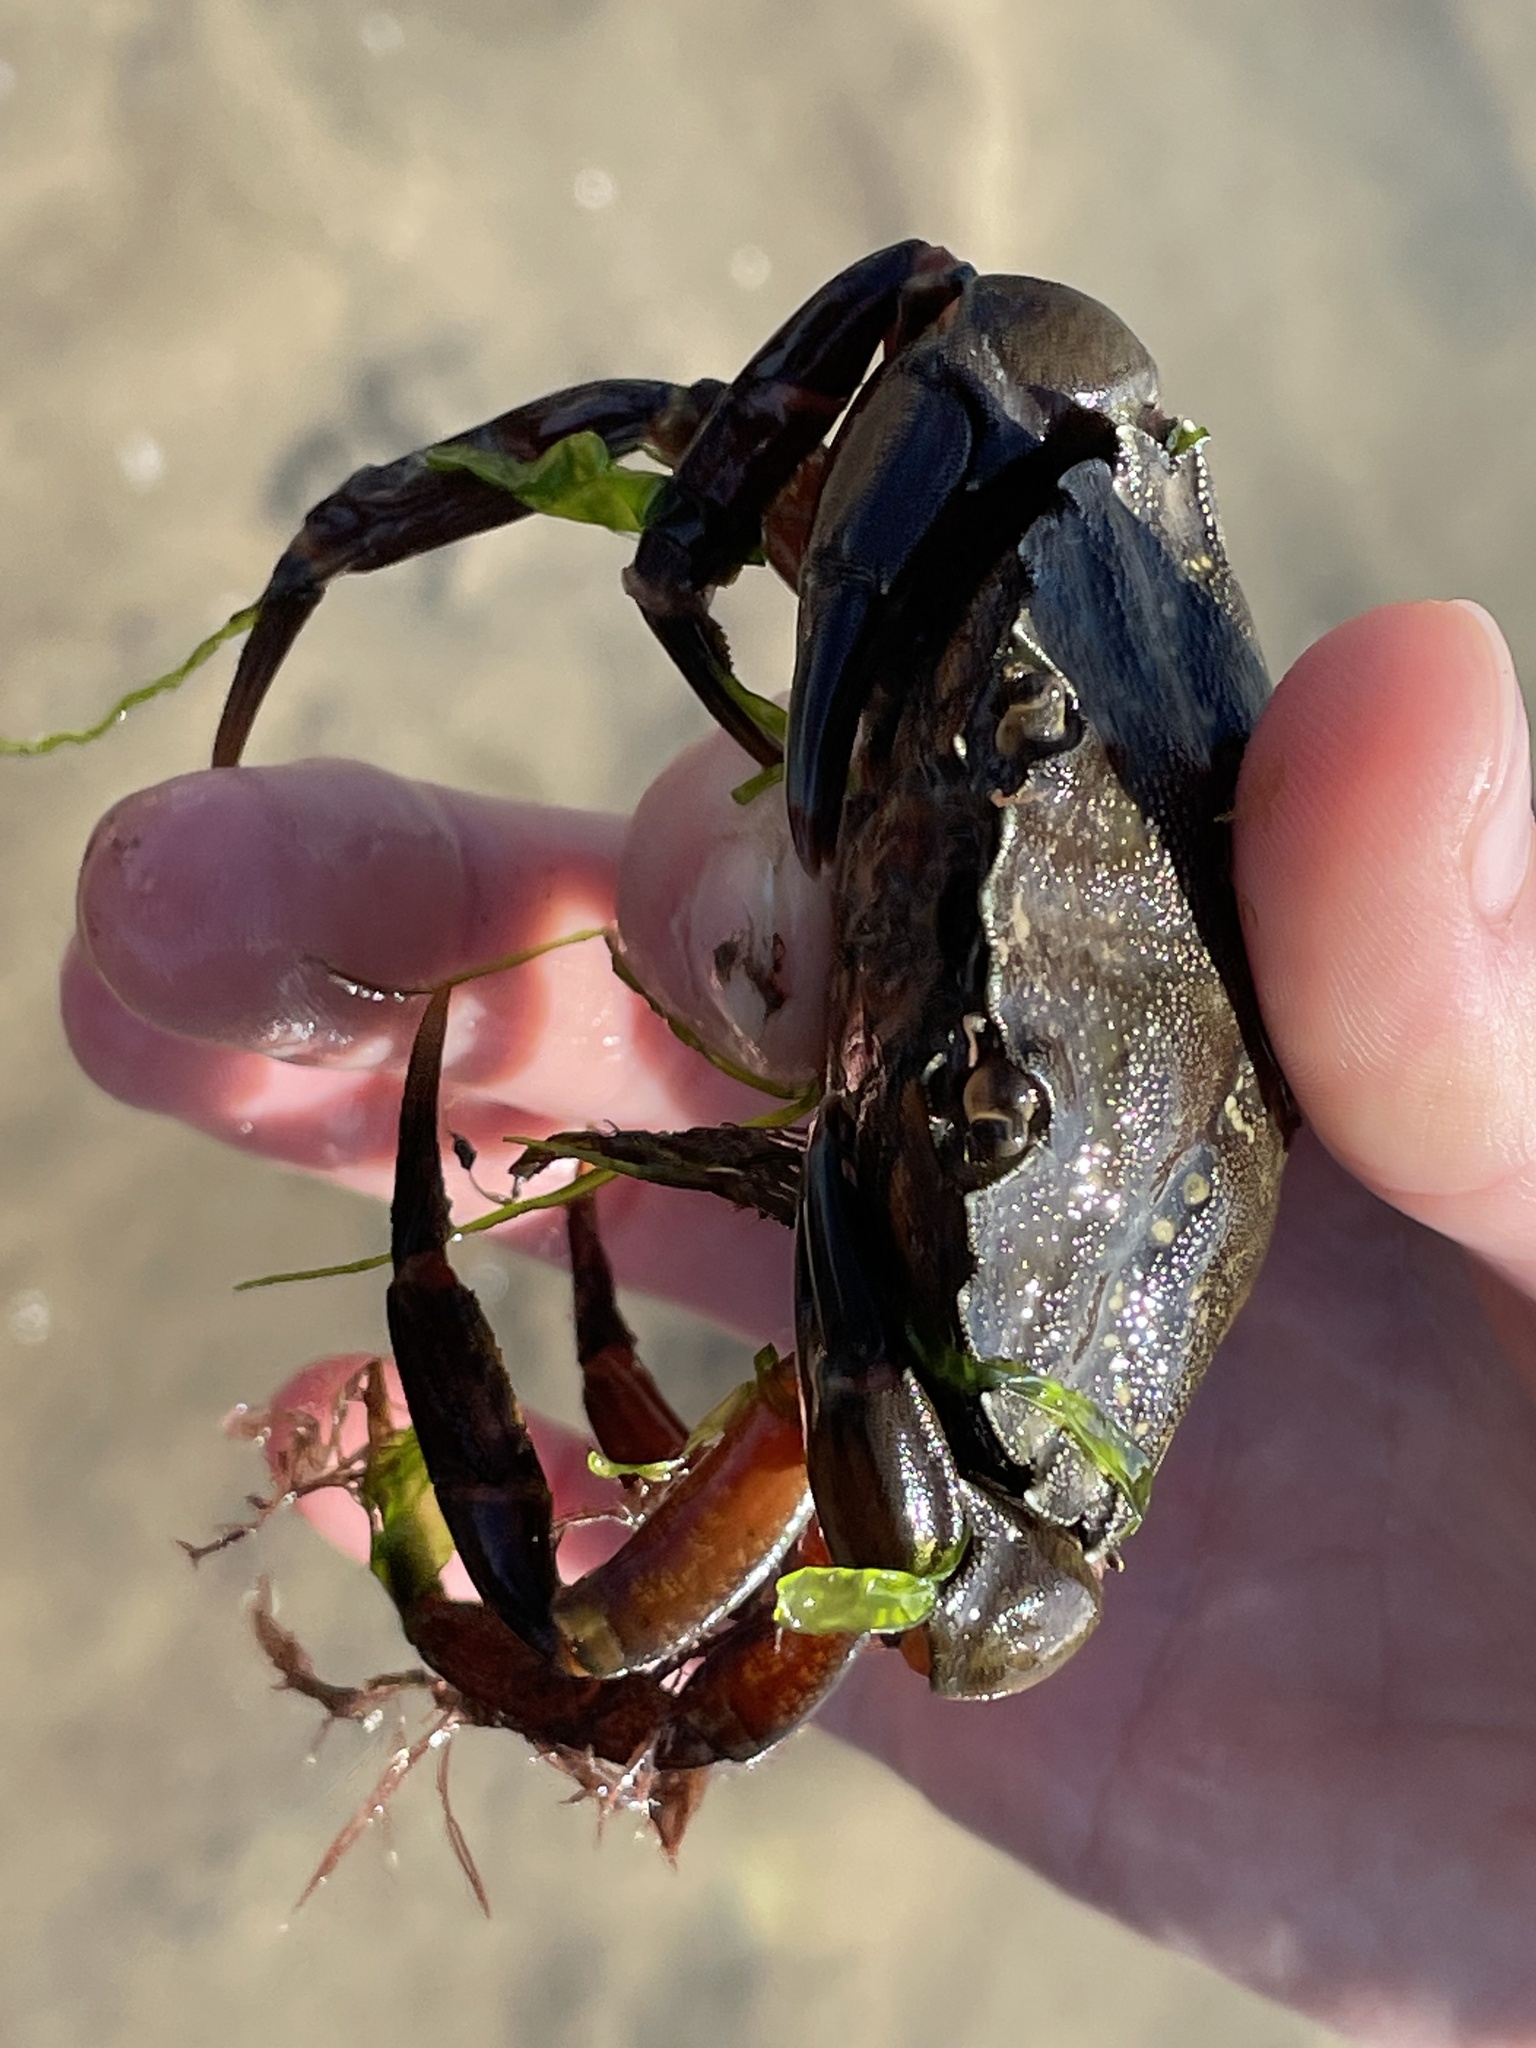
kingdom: Animalia
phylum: Arthropoda
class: Malacostraca
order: Decapoda
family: Carcinidae
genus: Carcinus
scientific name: Carcinus maenas
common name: European green crab
